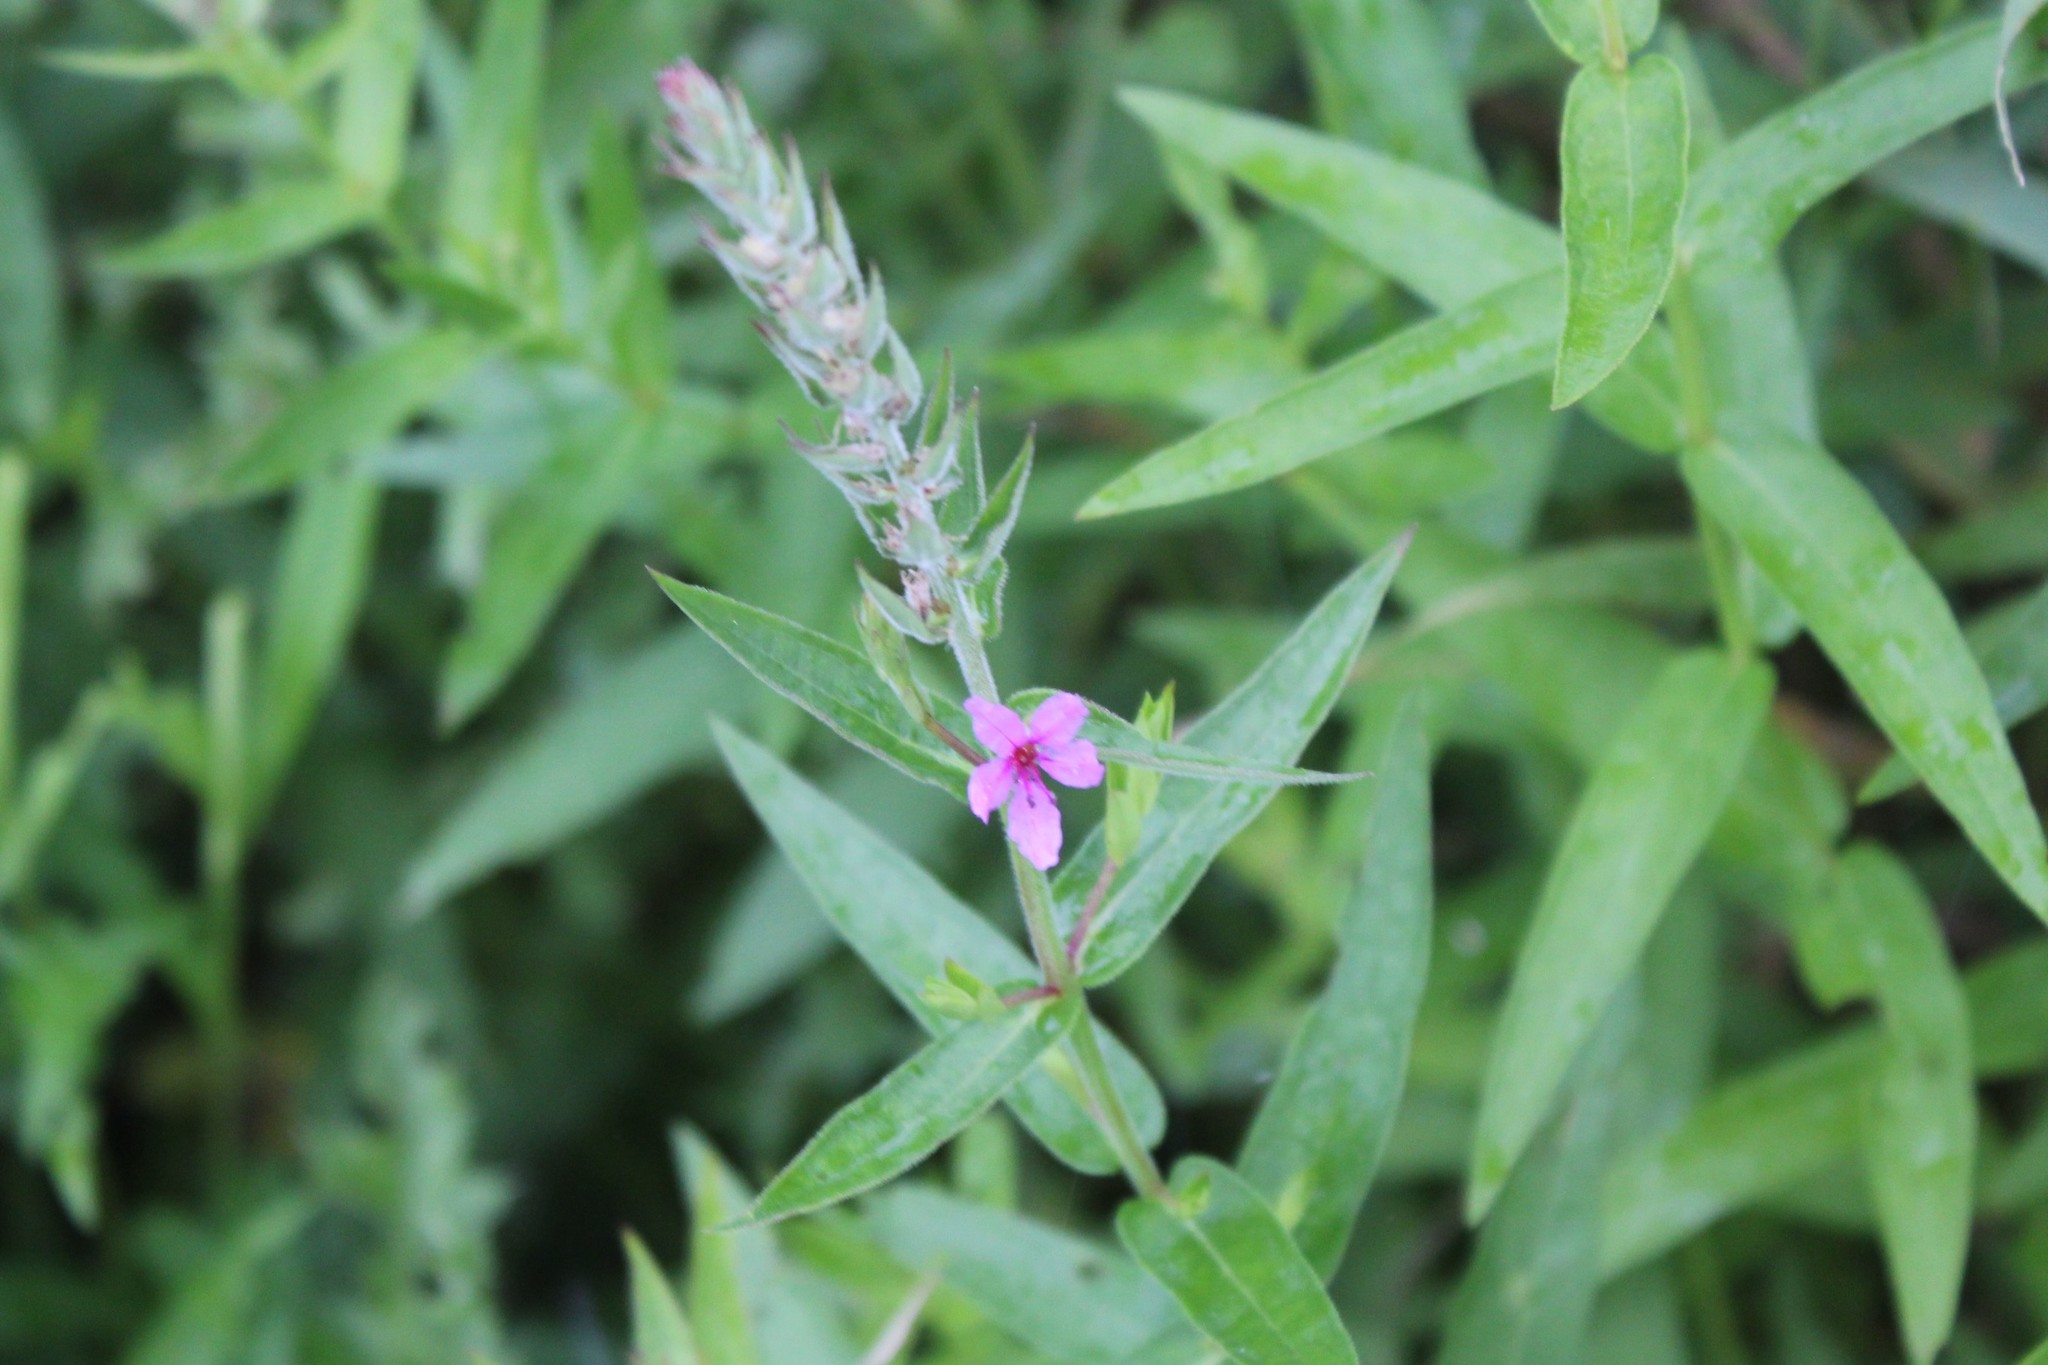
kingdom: Plantae
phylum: Tracheophyta
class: Magnoliopsida
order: Myrtales
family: Lythraceae
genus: Lythrum
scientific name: Lythrum salicaria
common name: Purple loosestrife
